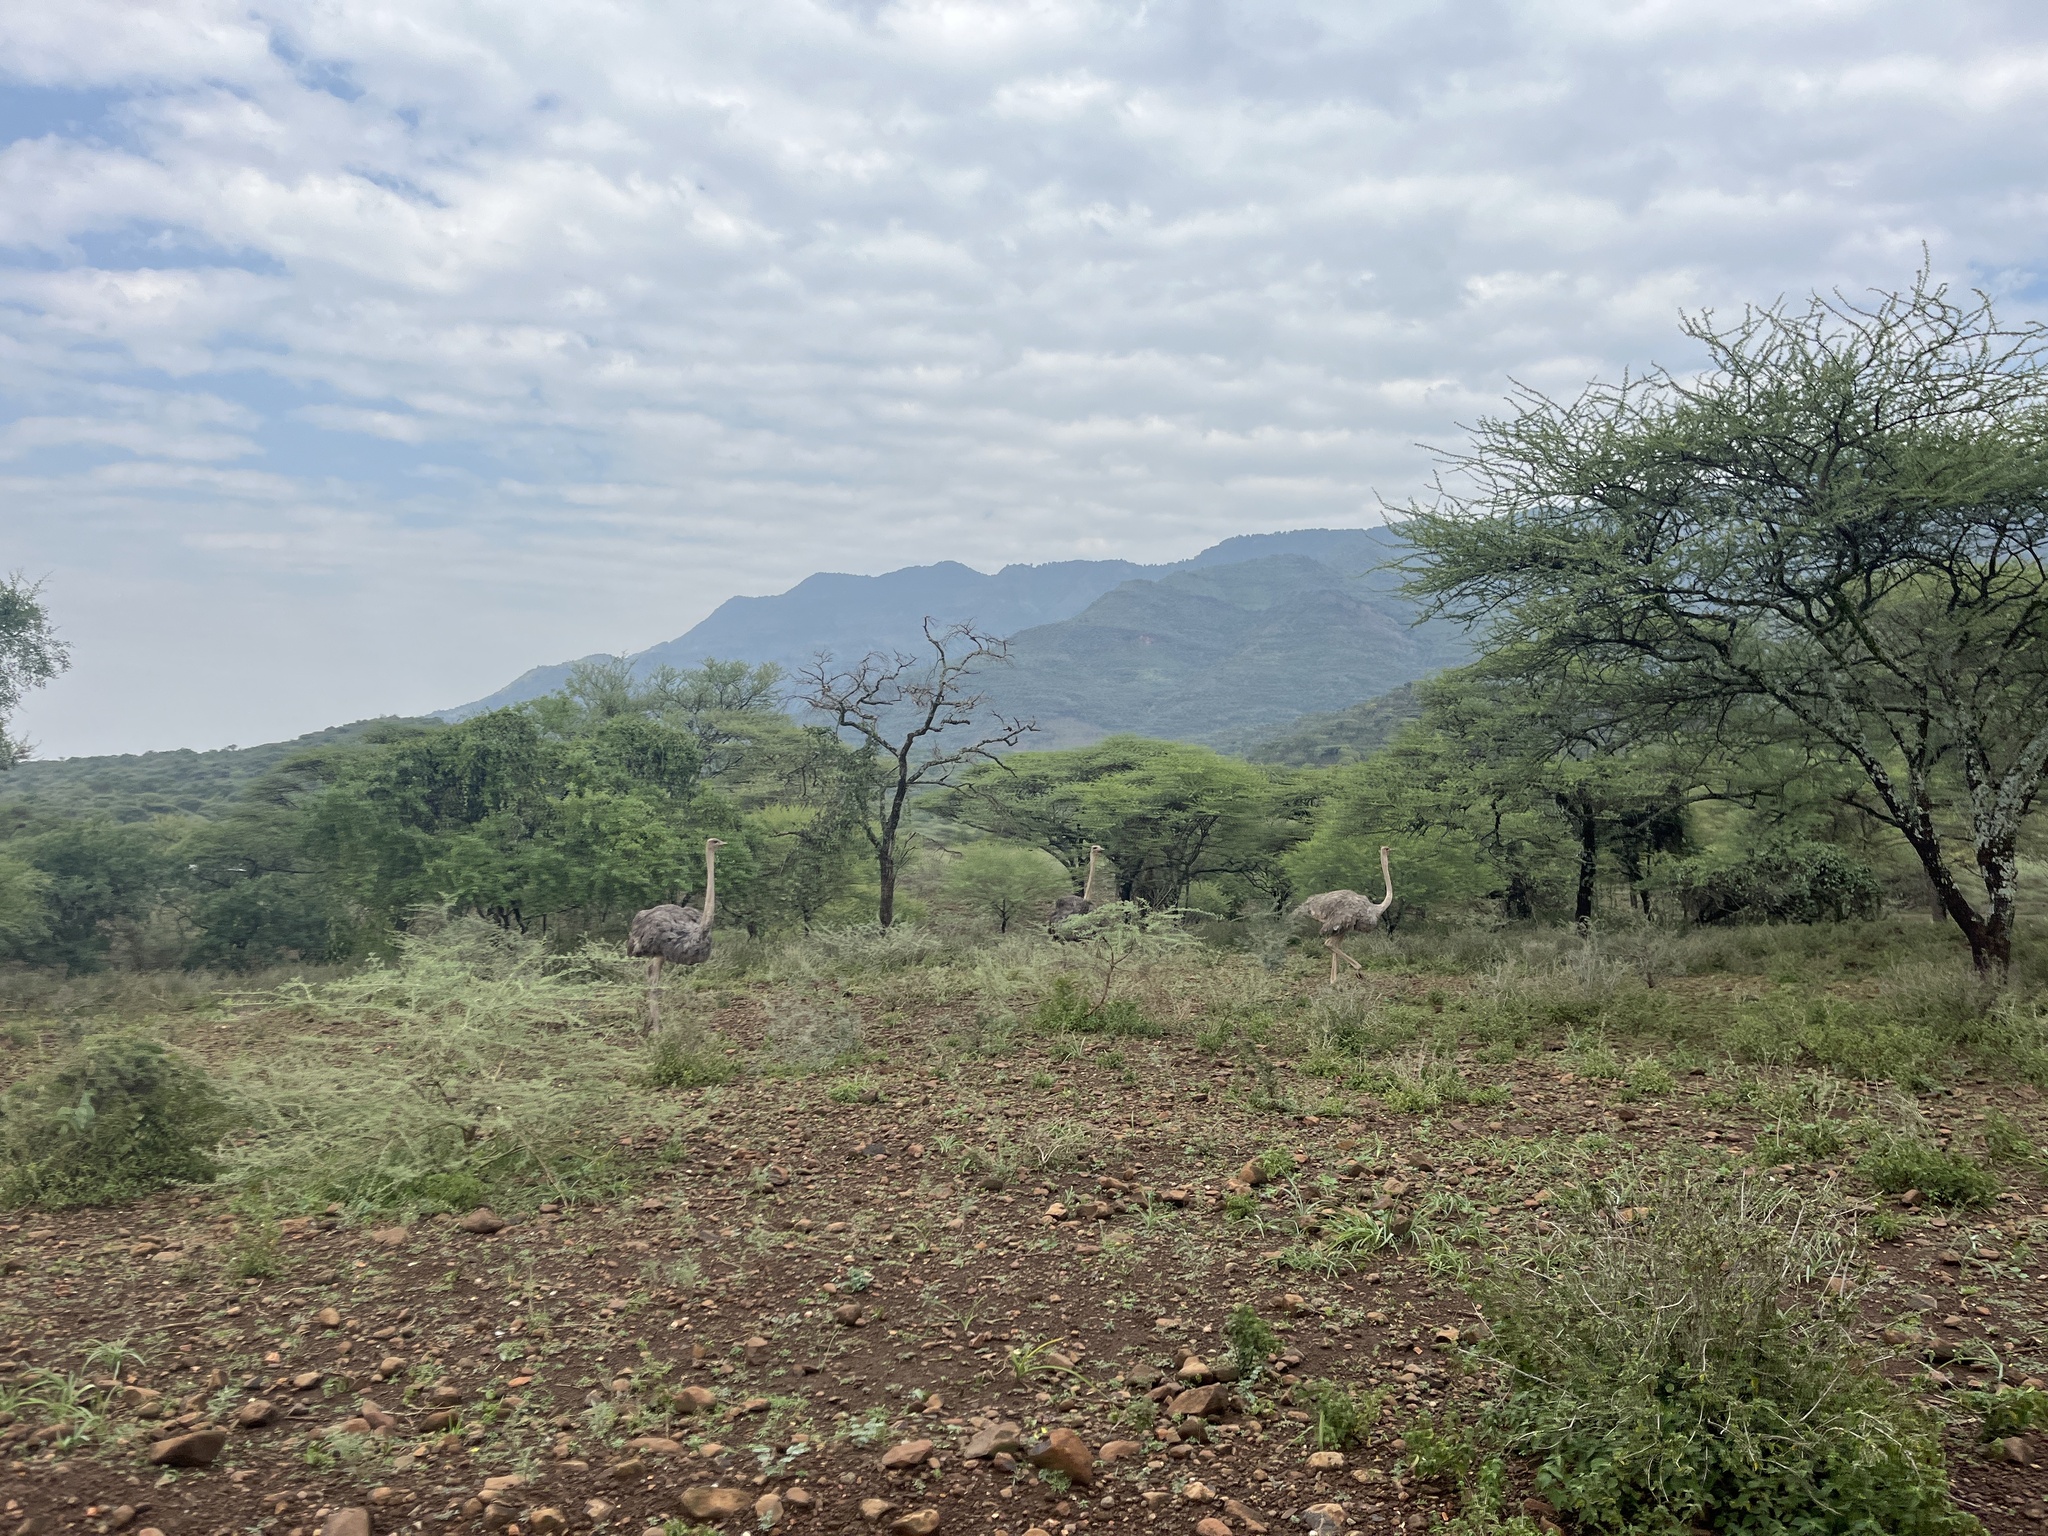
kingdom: Animalia
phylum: Chordata
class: Aves
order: Struthioniformes
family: Struthionidae
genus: Struthio
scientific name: Struthio camelus
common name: Common ostrich
